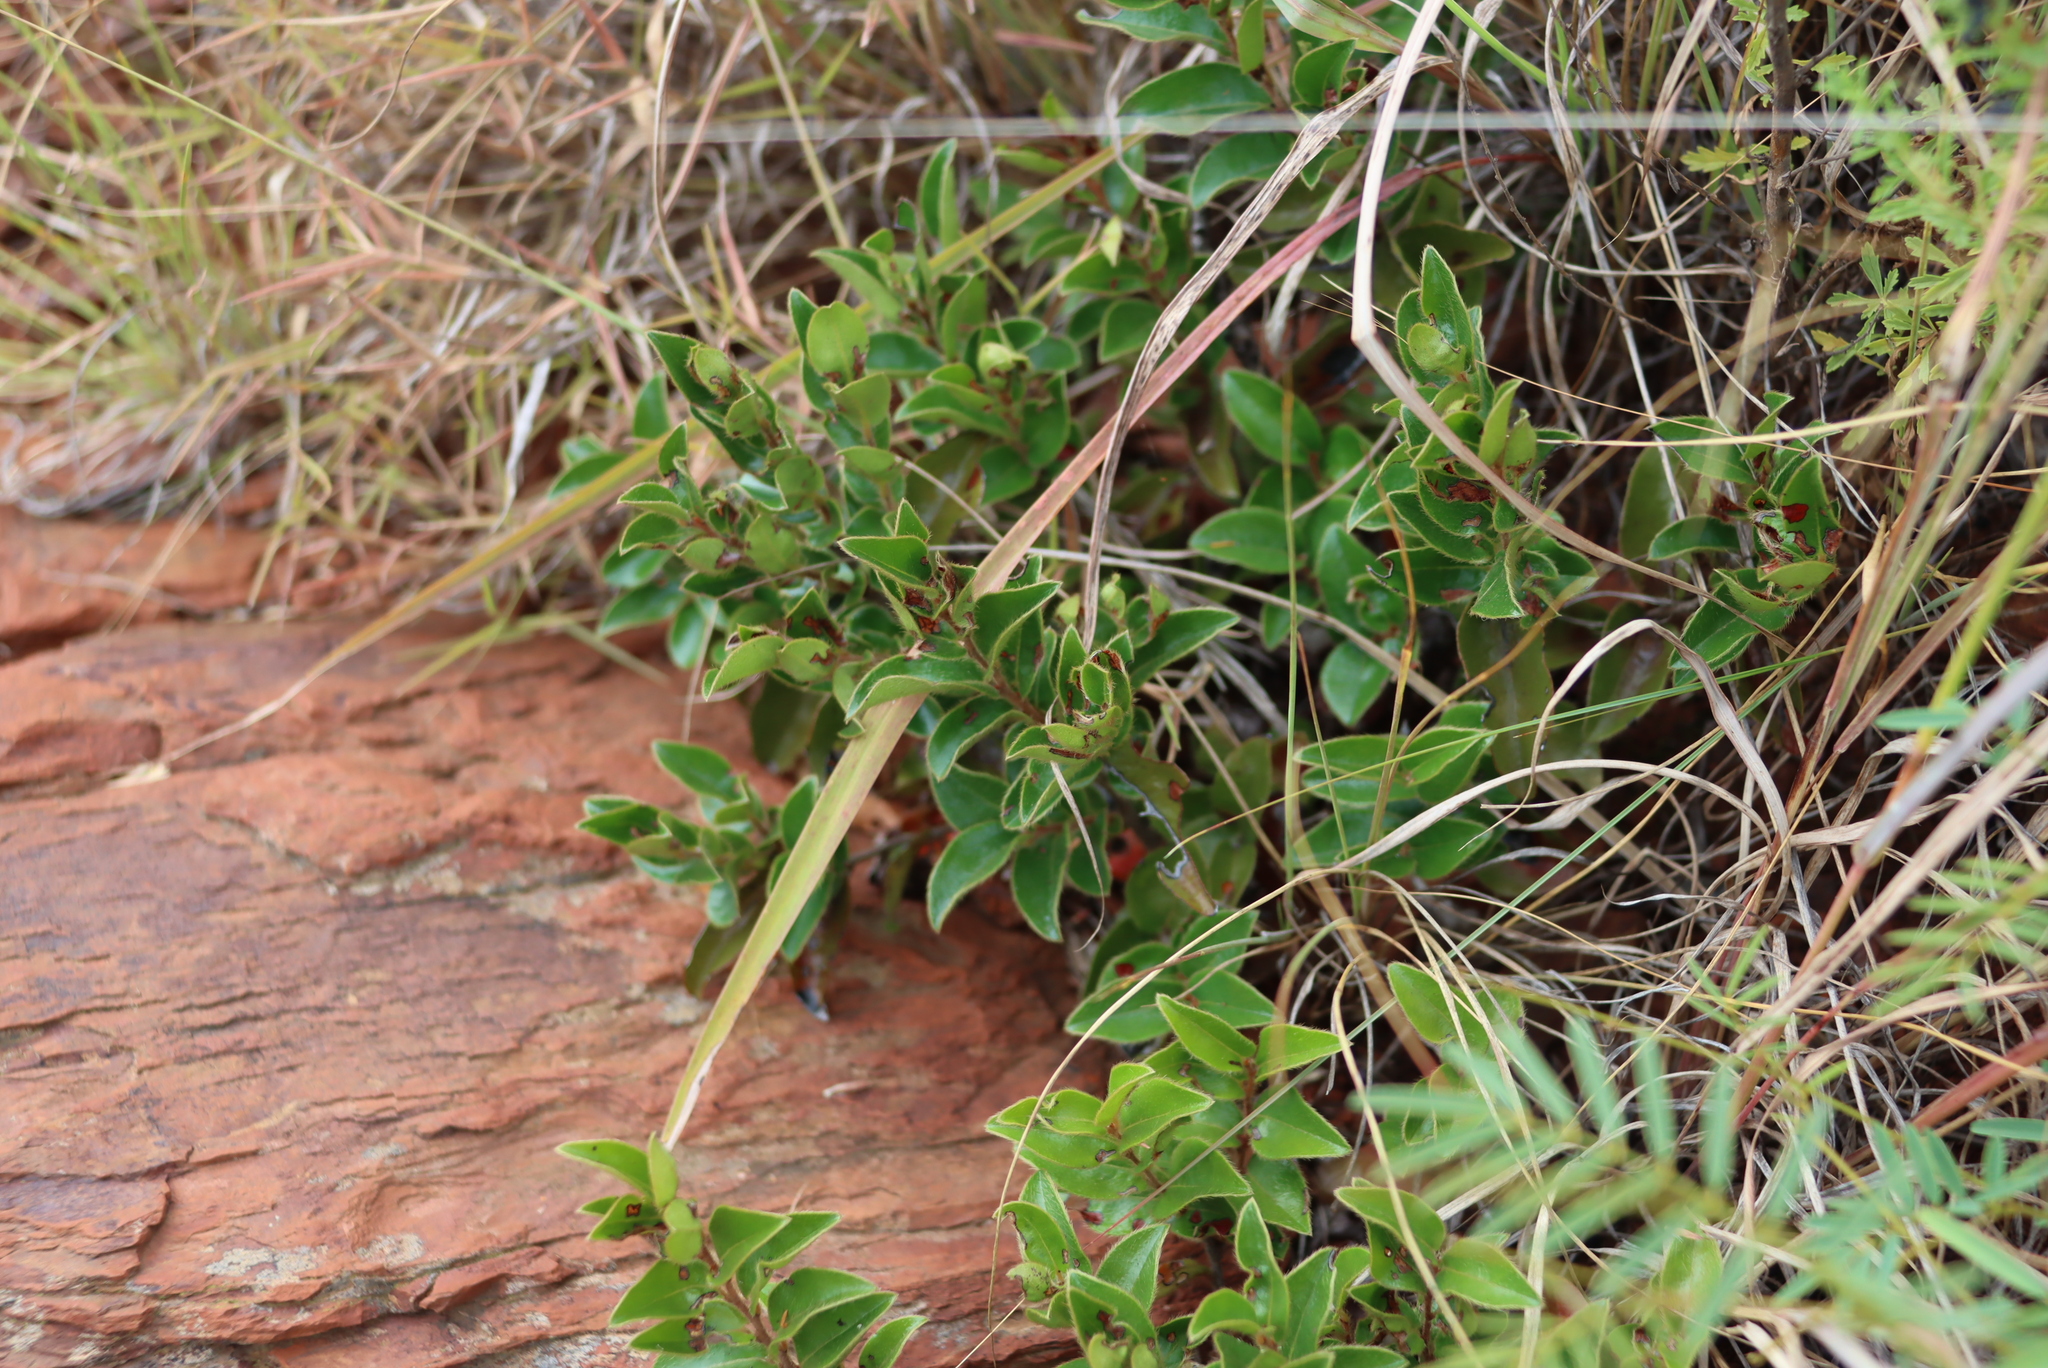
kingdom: Plantae
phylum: Tracheophyta
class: Magnoliopsida
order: Ericales
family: Ebenaceae
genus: Diospyros
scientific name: Diospyros whyteana
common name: Bladder-nut
